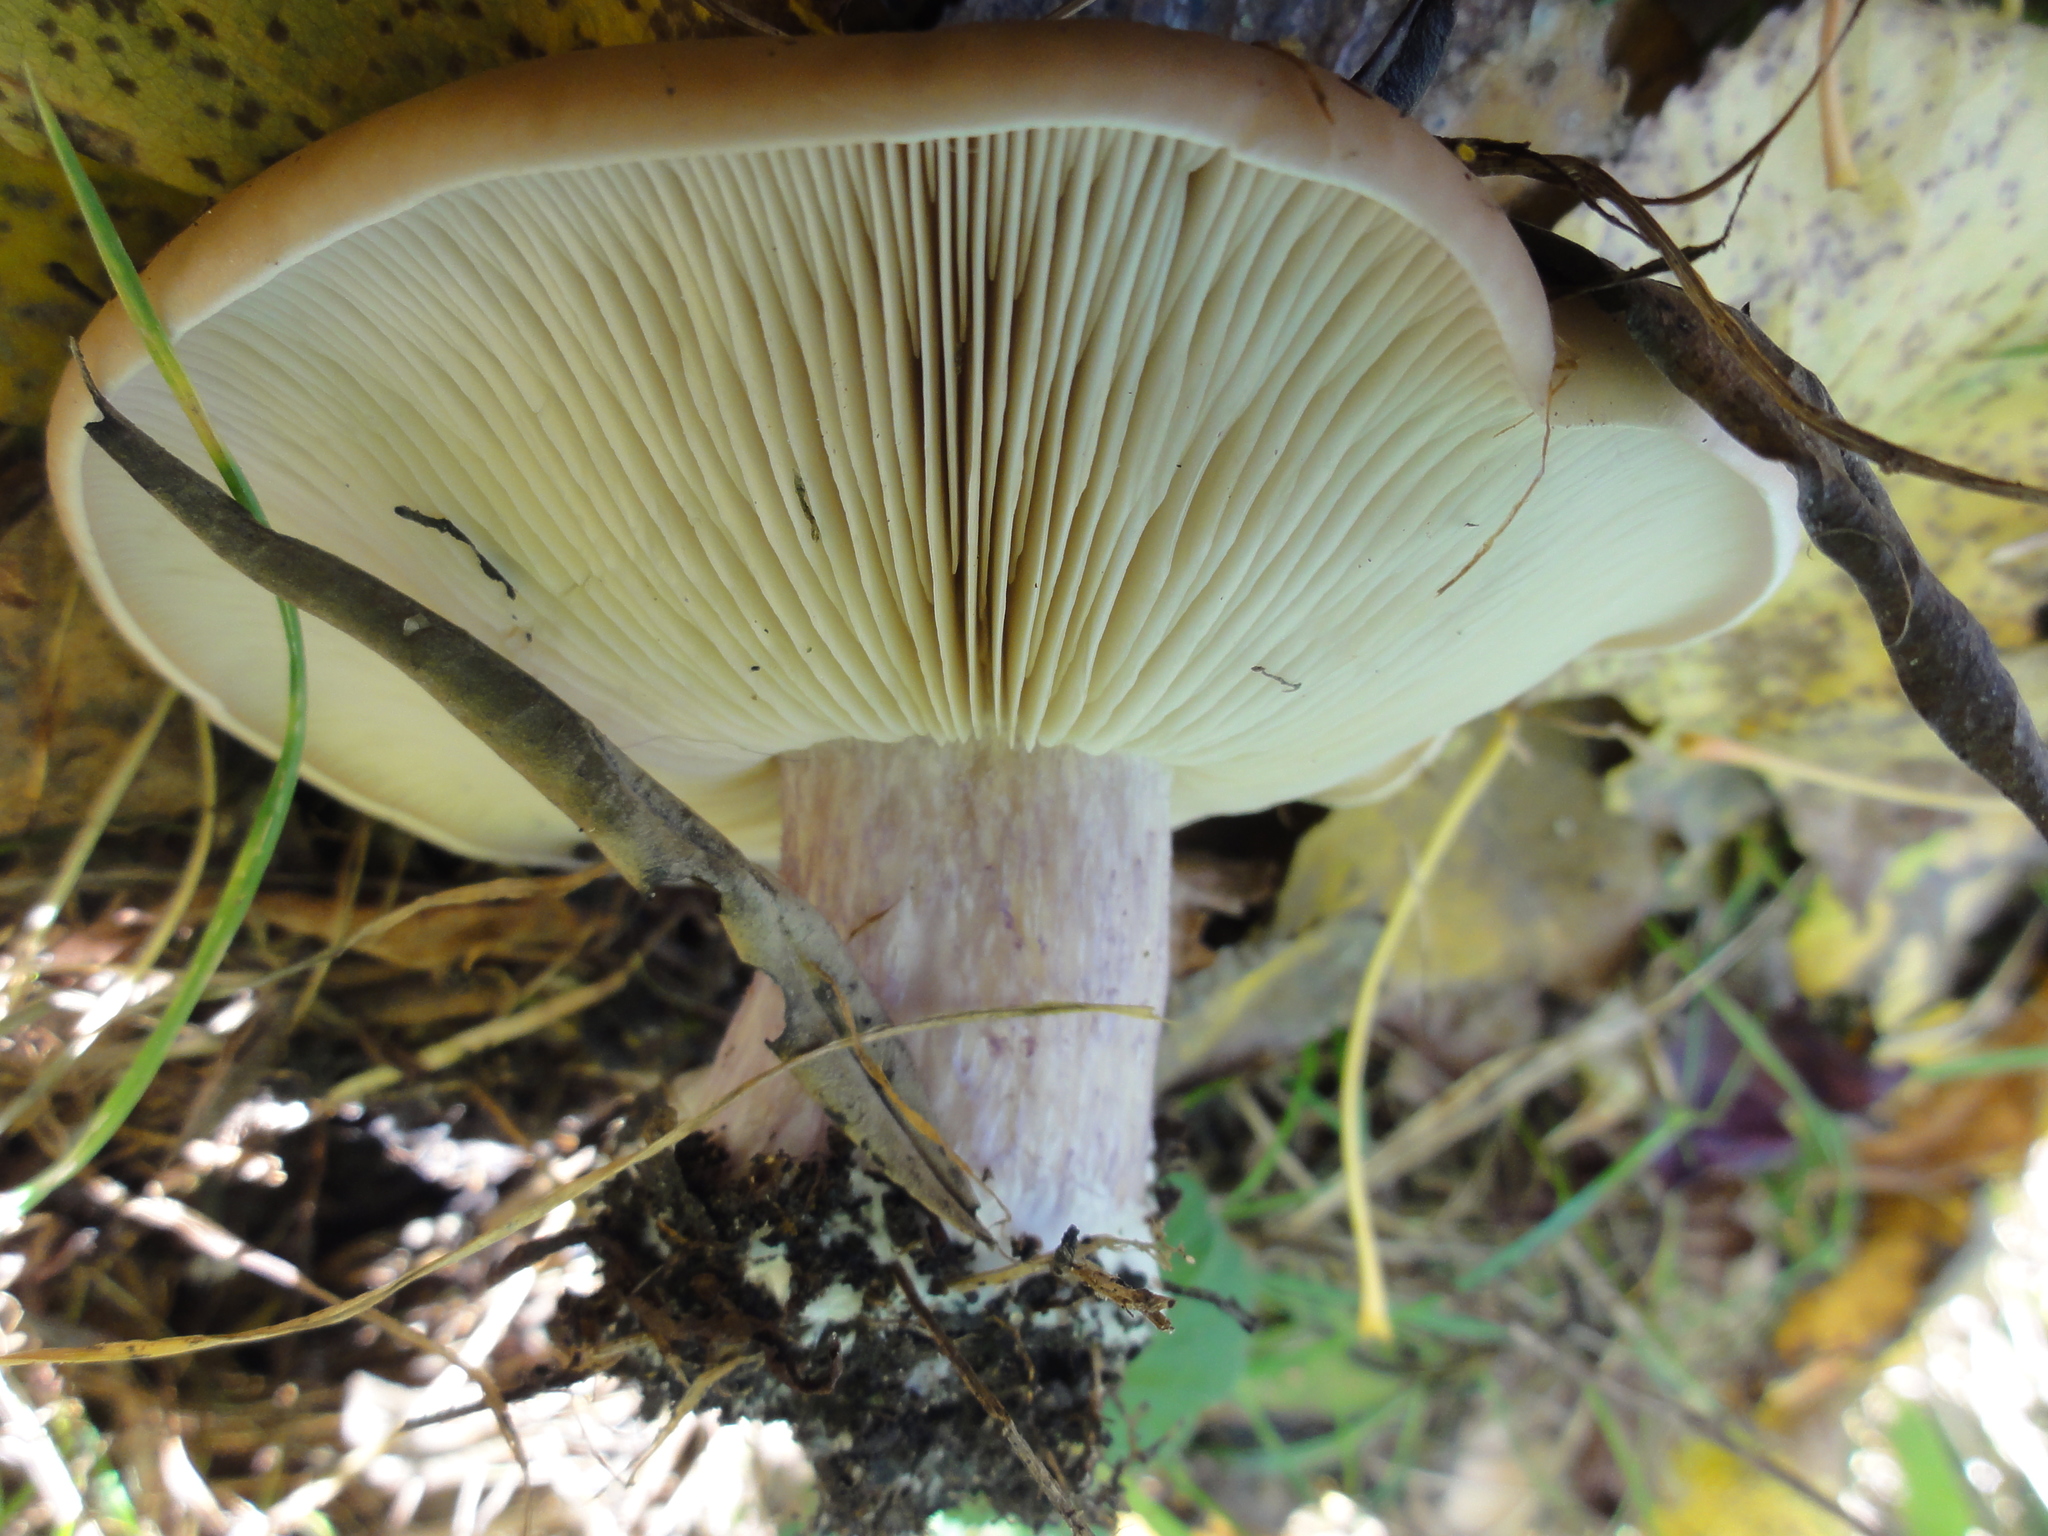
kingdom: Fungi
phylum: Basidiomycota
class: Agaricomycetes
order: Agaricales
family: Omphalotaceae
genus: Collybiopsis
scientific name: Collybiopsis peronata
